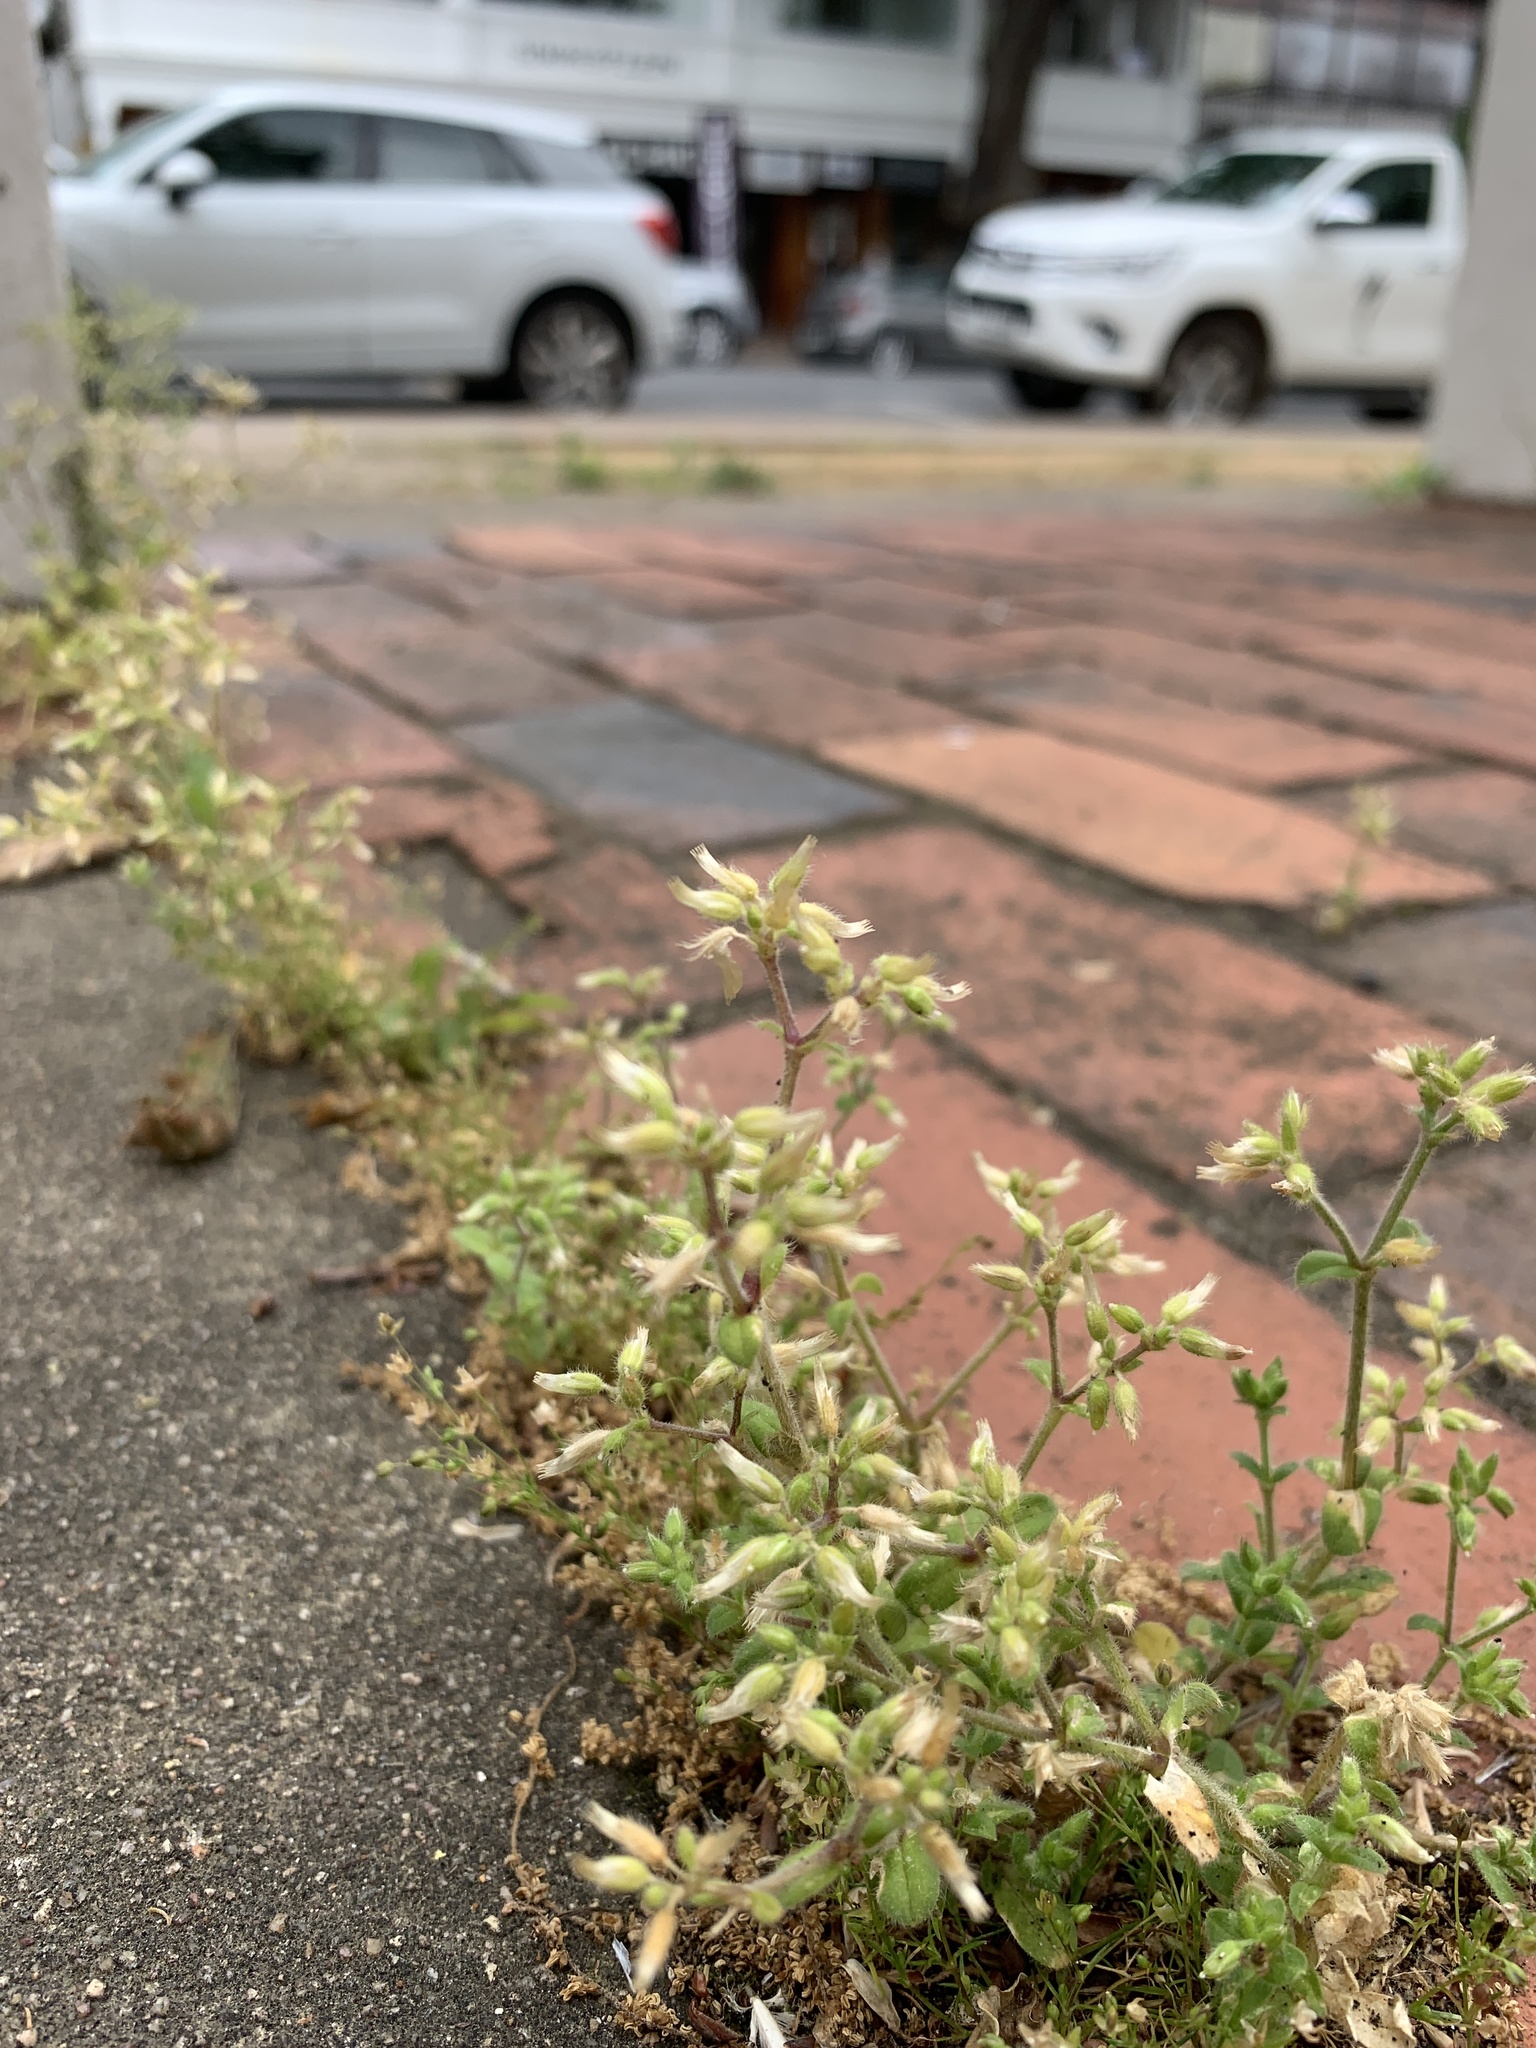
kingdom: Plantae
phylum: Tracheophyta
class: Magnoliopsida
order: Caryophyllales
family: Caryophyllaceae
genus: Cerastium
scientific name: Cerastium glomeratum
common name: Sticky chickweed
